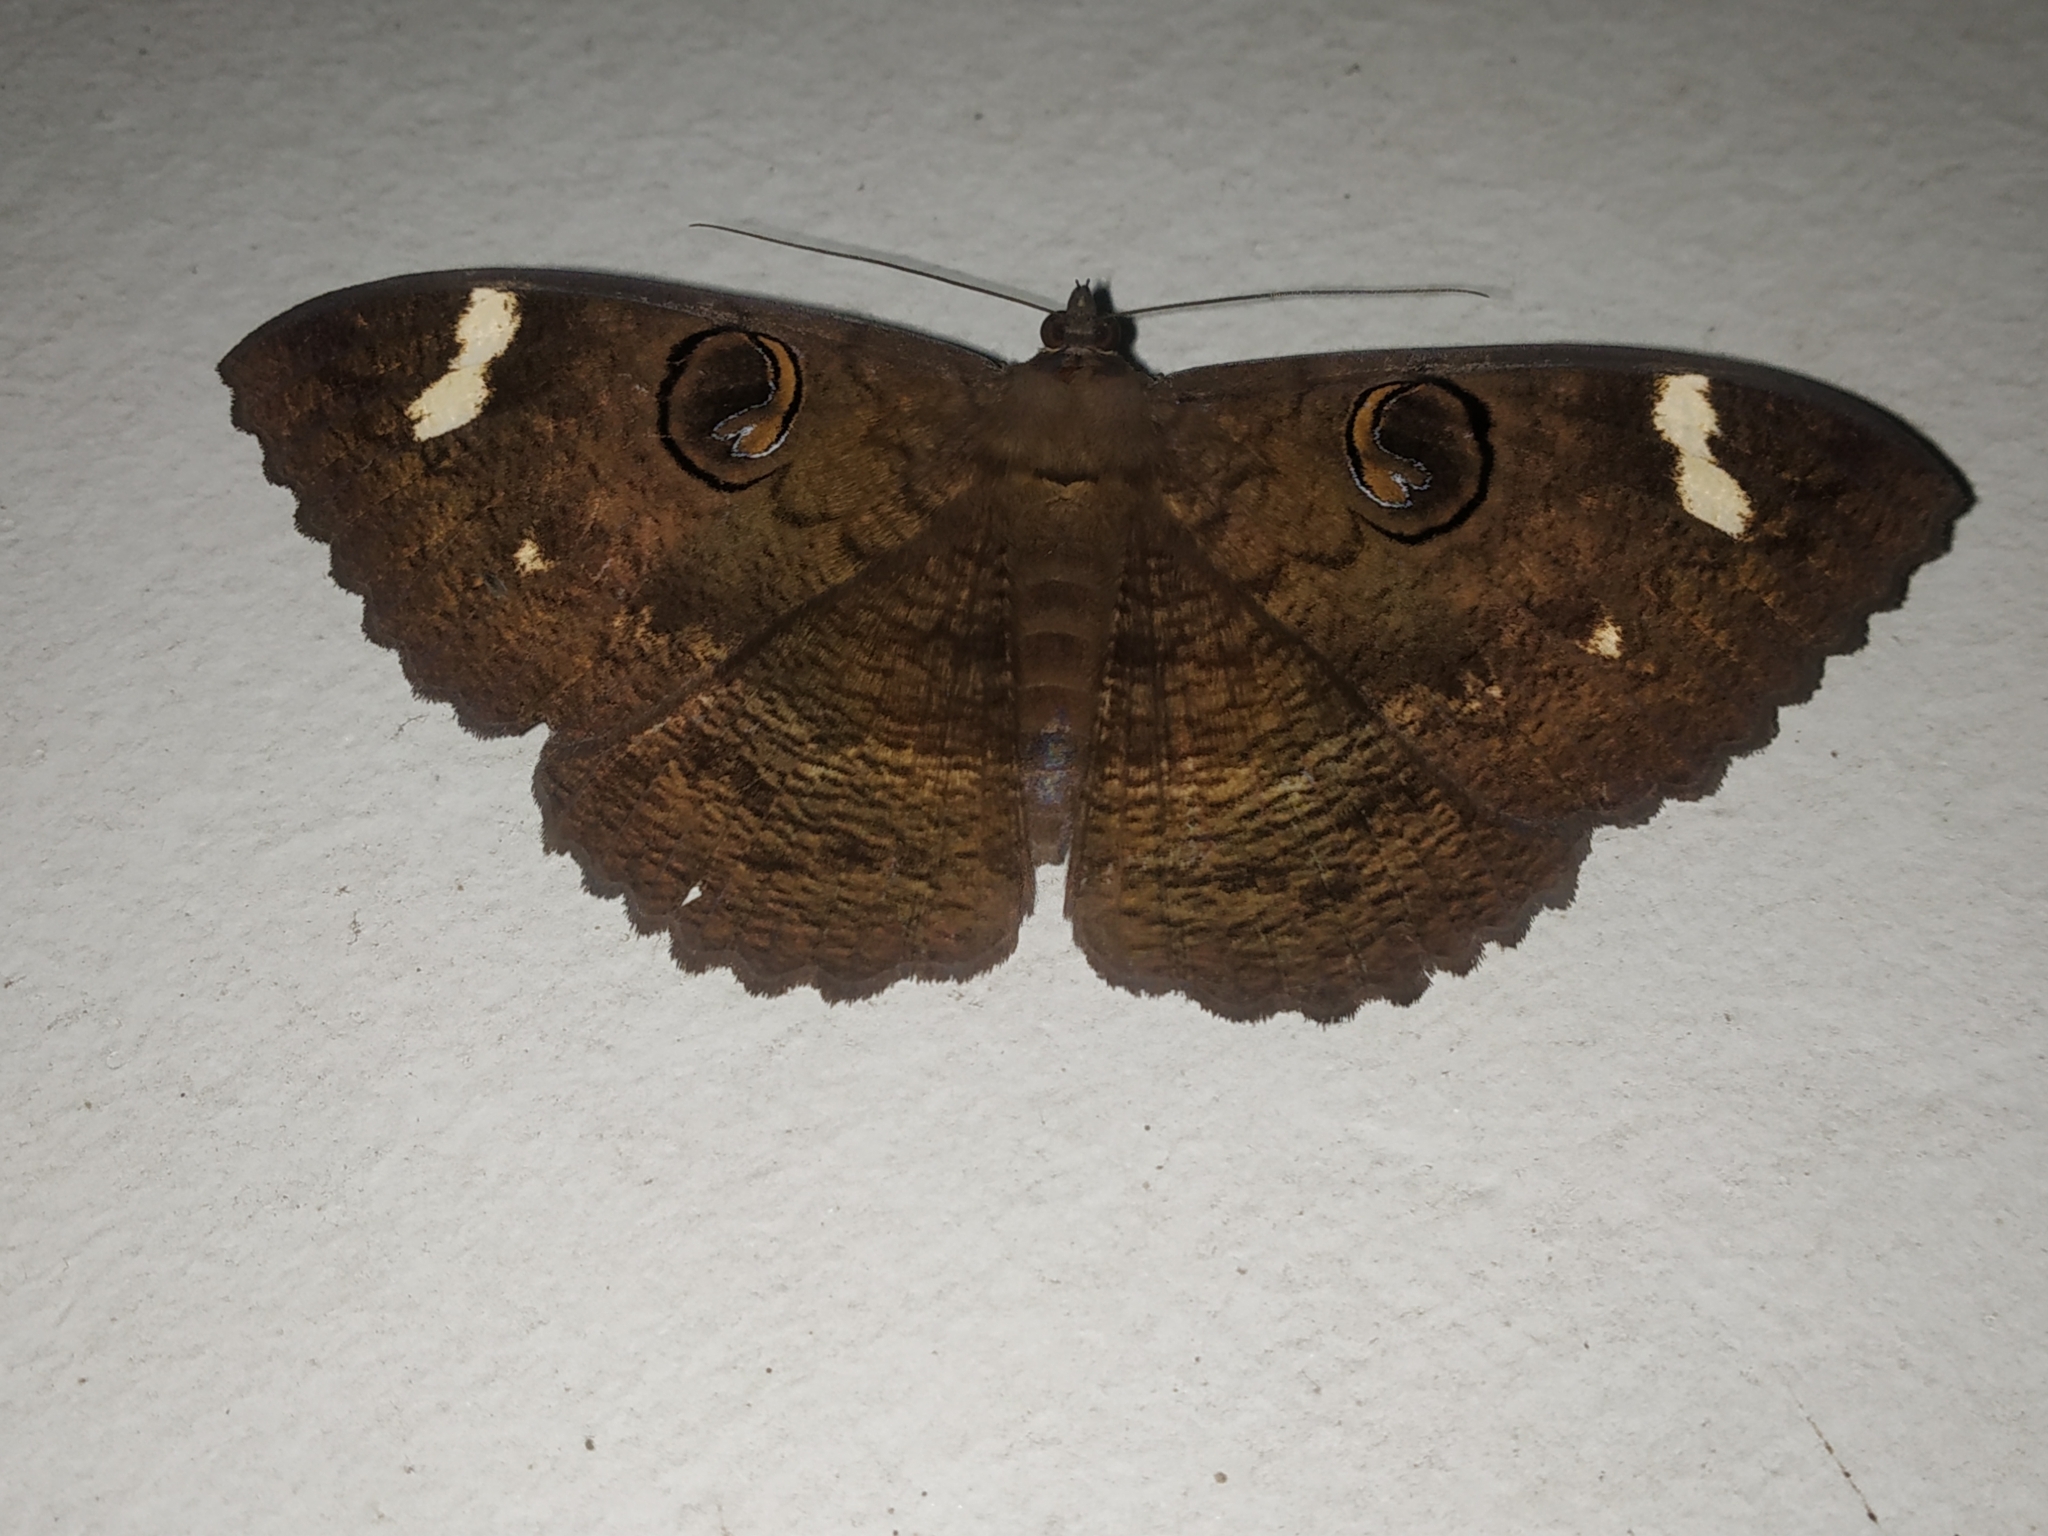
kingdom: Animalia
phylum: Arthropoda
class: Insecta
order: Lepidoptera
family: Erebidae
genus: Erebus
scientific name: Erebus hieroglyphica
